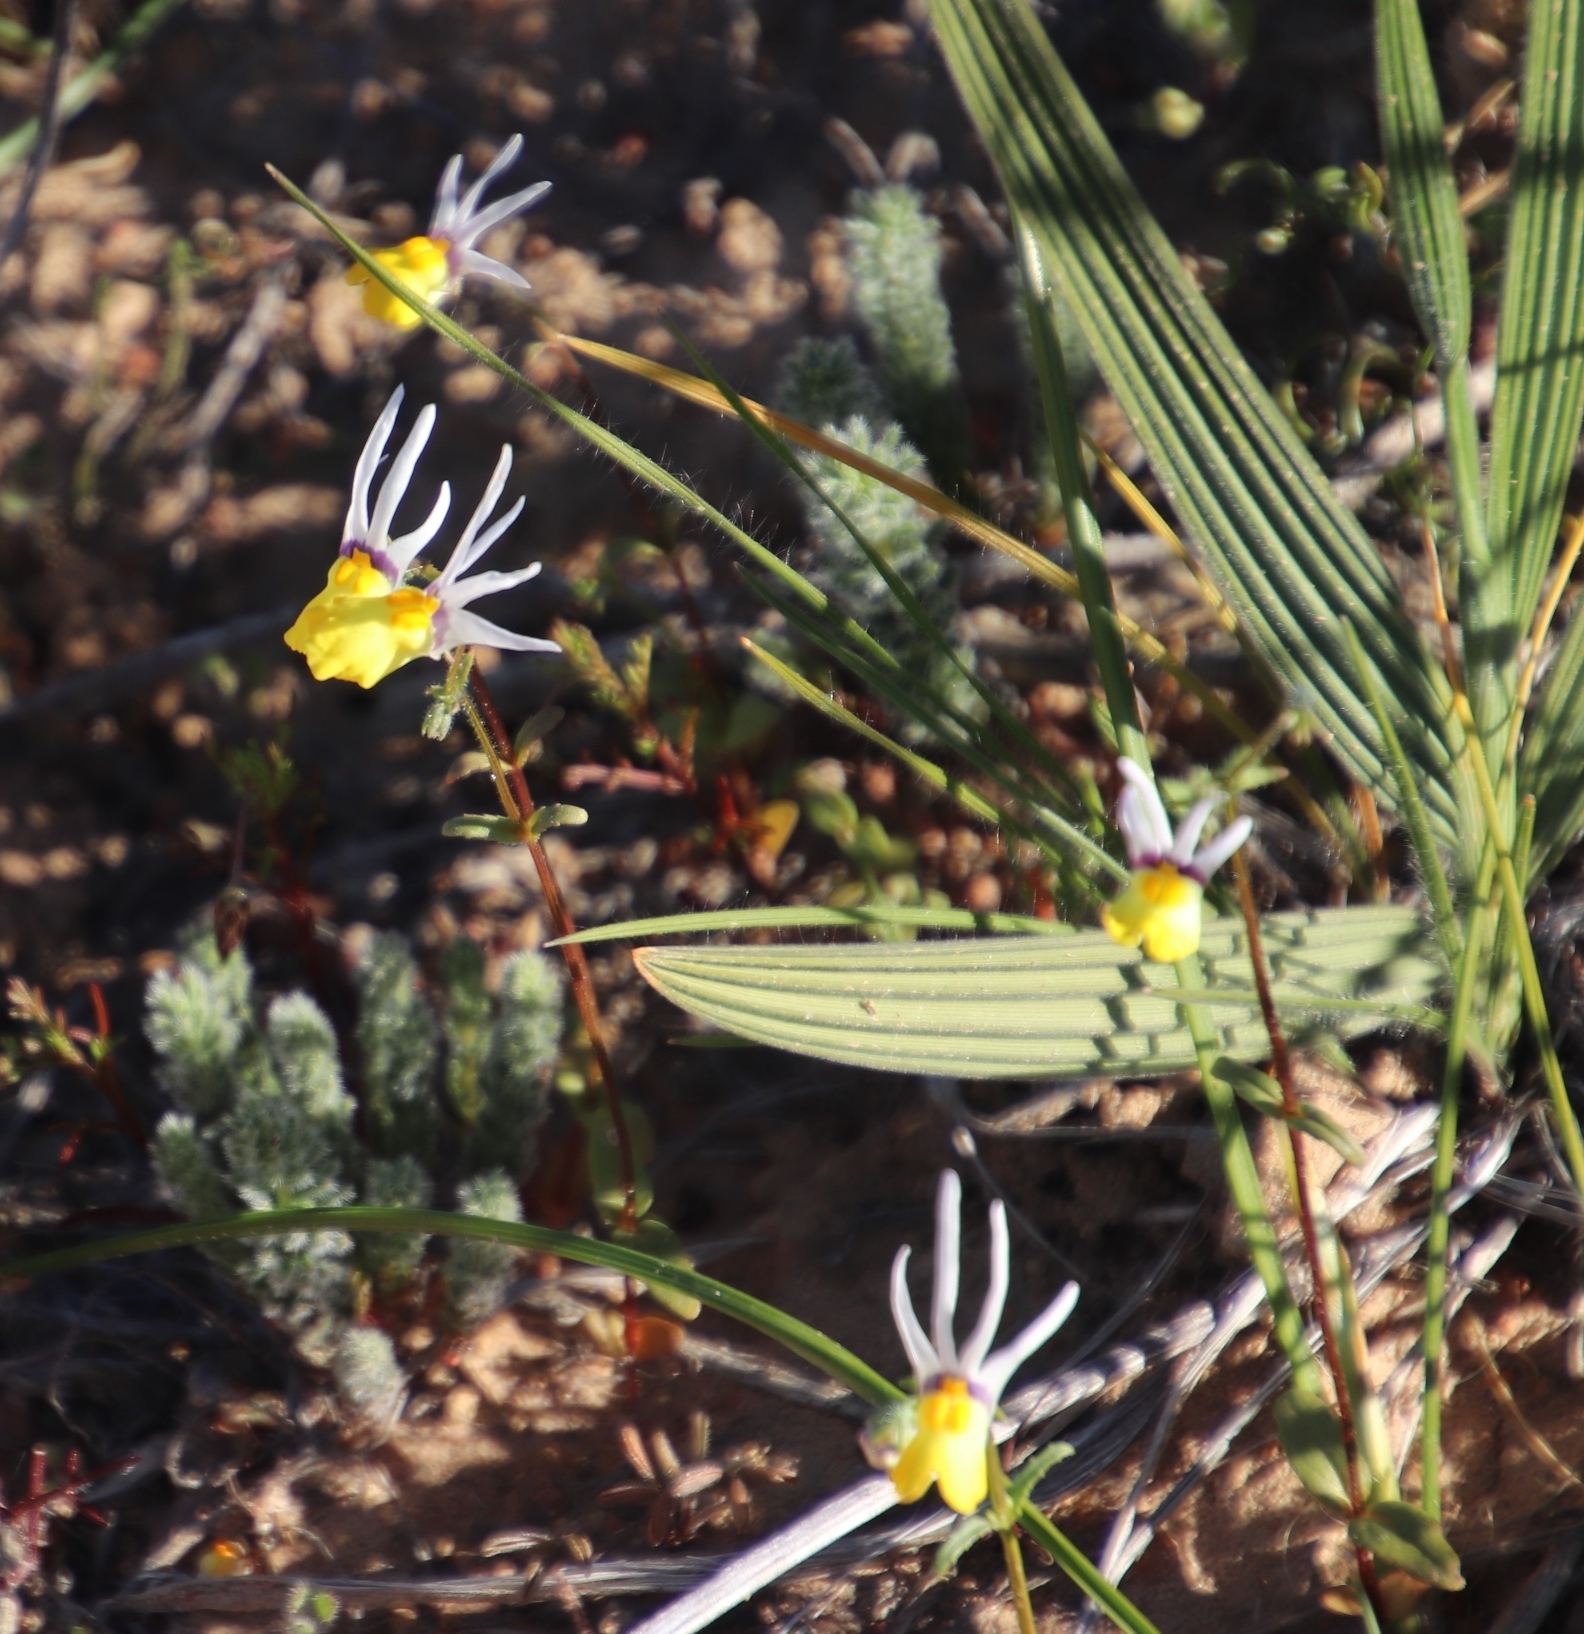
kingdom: Plantae
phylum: Tracheophyta
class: Magnoliopsida
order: Lamiales
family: Scrophulariaceae
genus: Nemesia
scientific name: Nemesia cheiranthus
